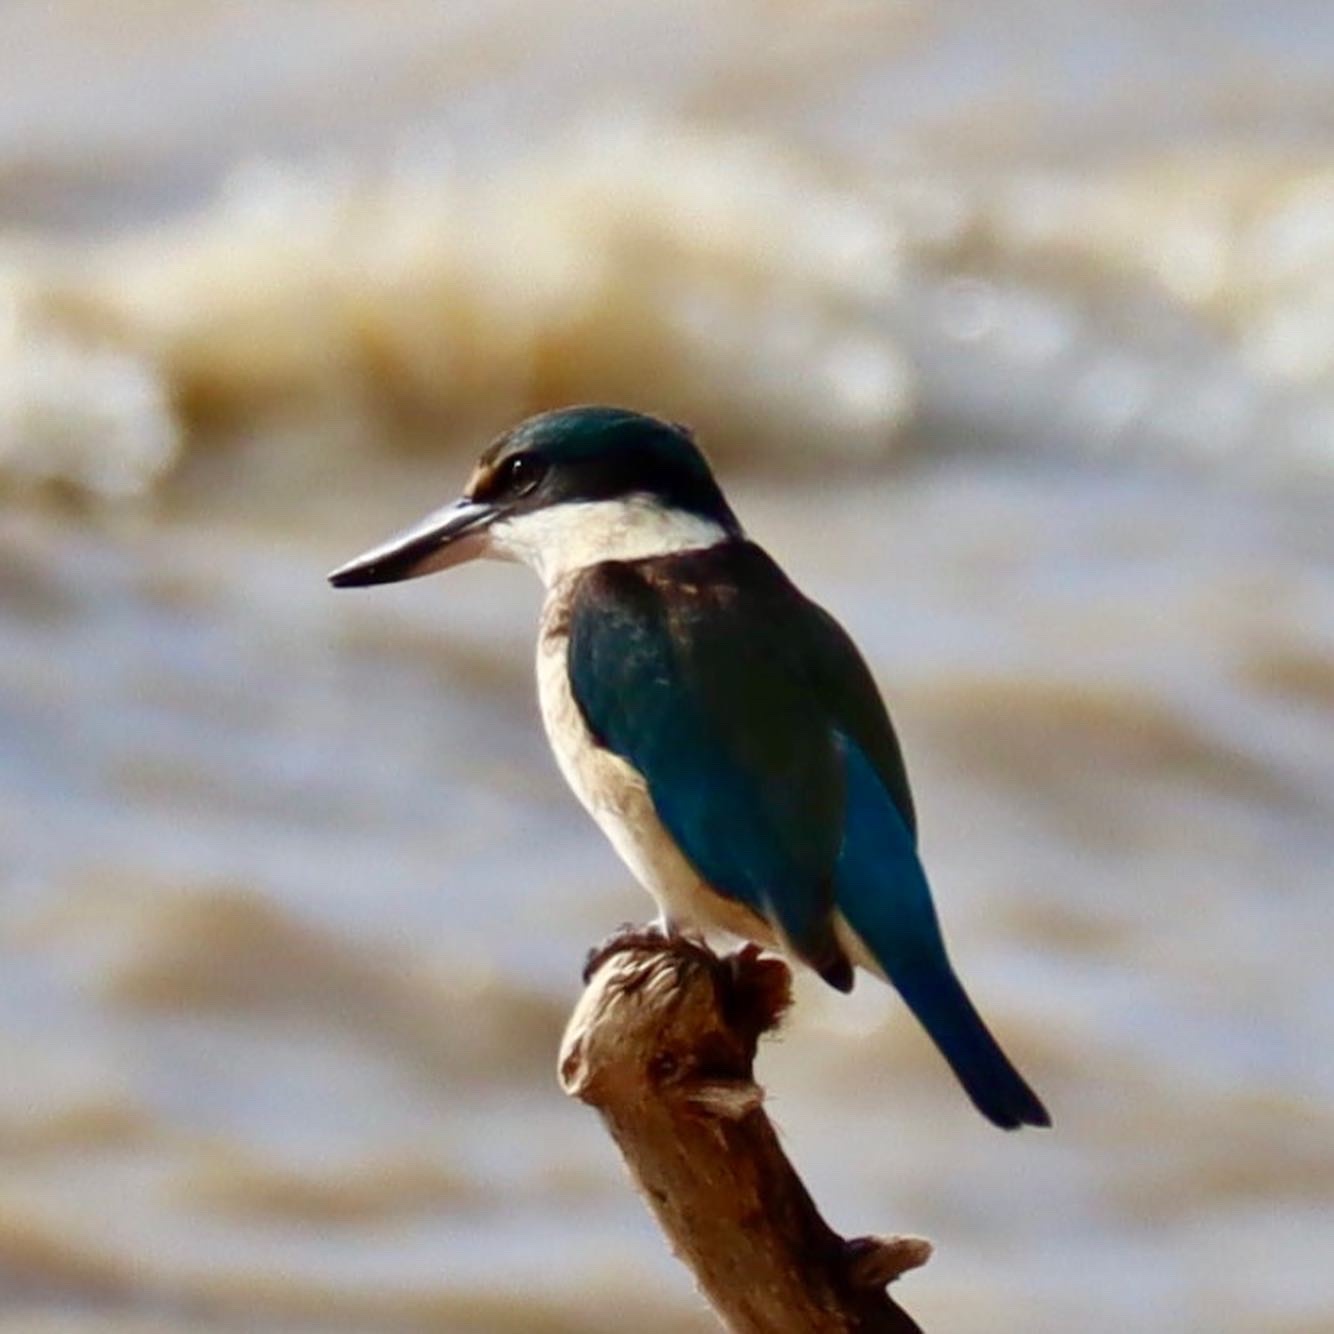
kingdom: Animalia
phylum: Chordata
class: Aves
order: Coraciiformes
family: Alcedinidae
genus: Todiramphus
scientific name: Todiramphus sanctus
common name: Sacred kingfisher
